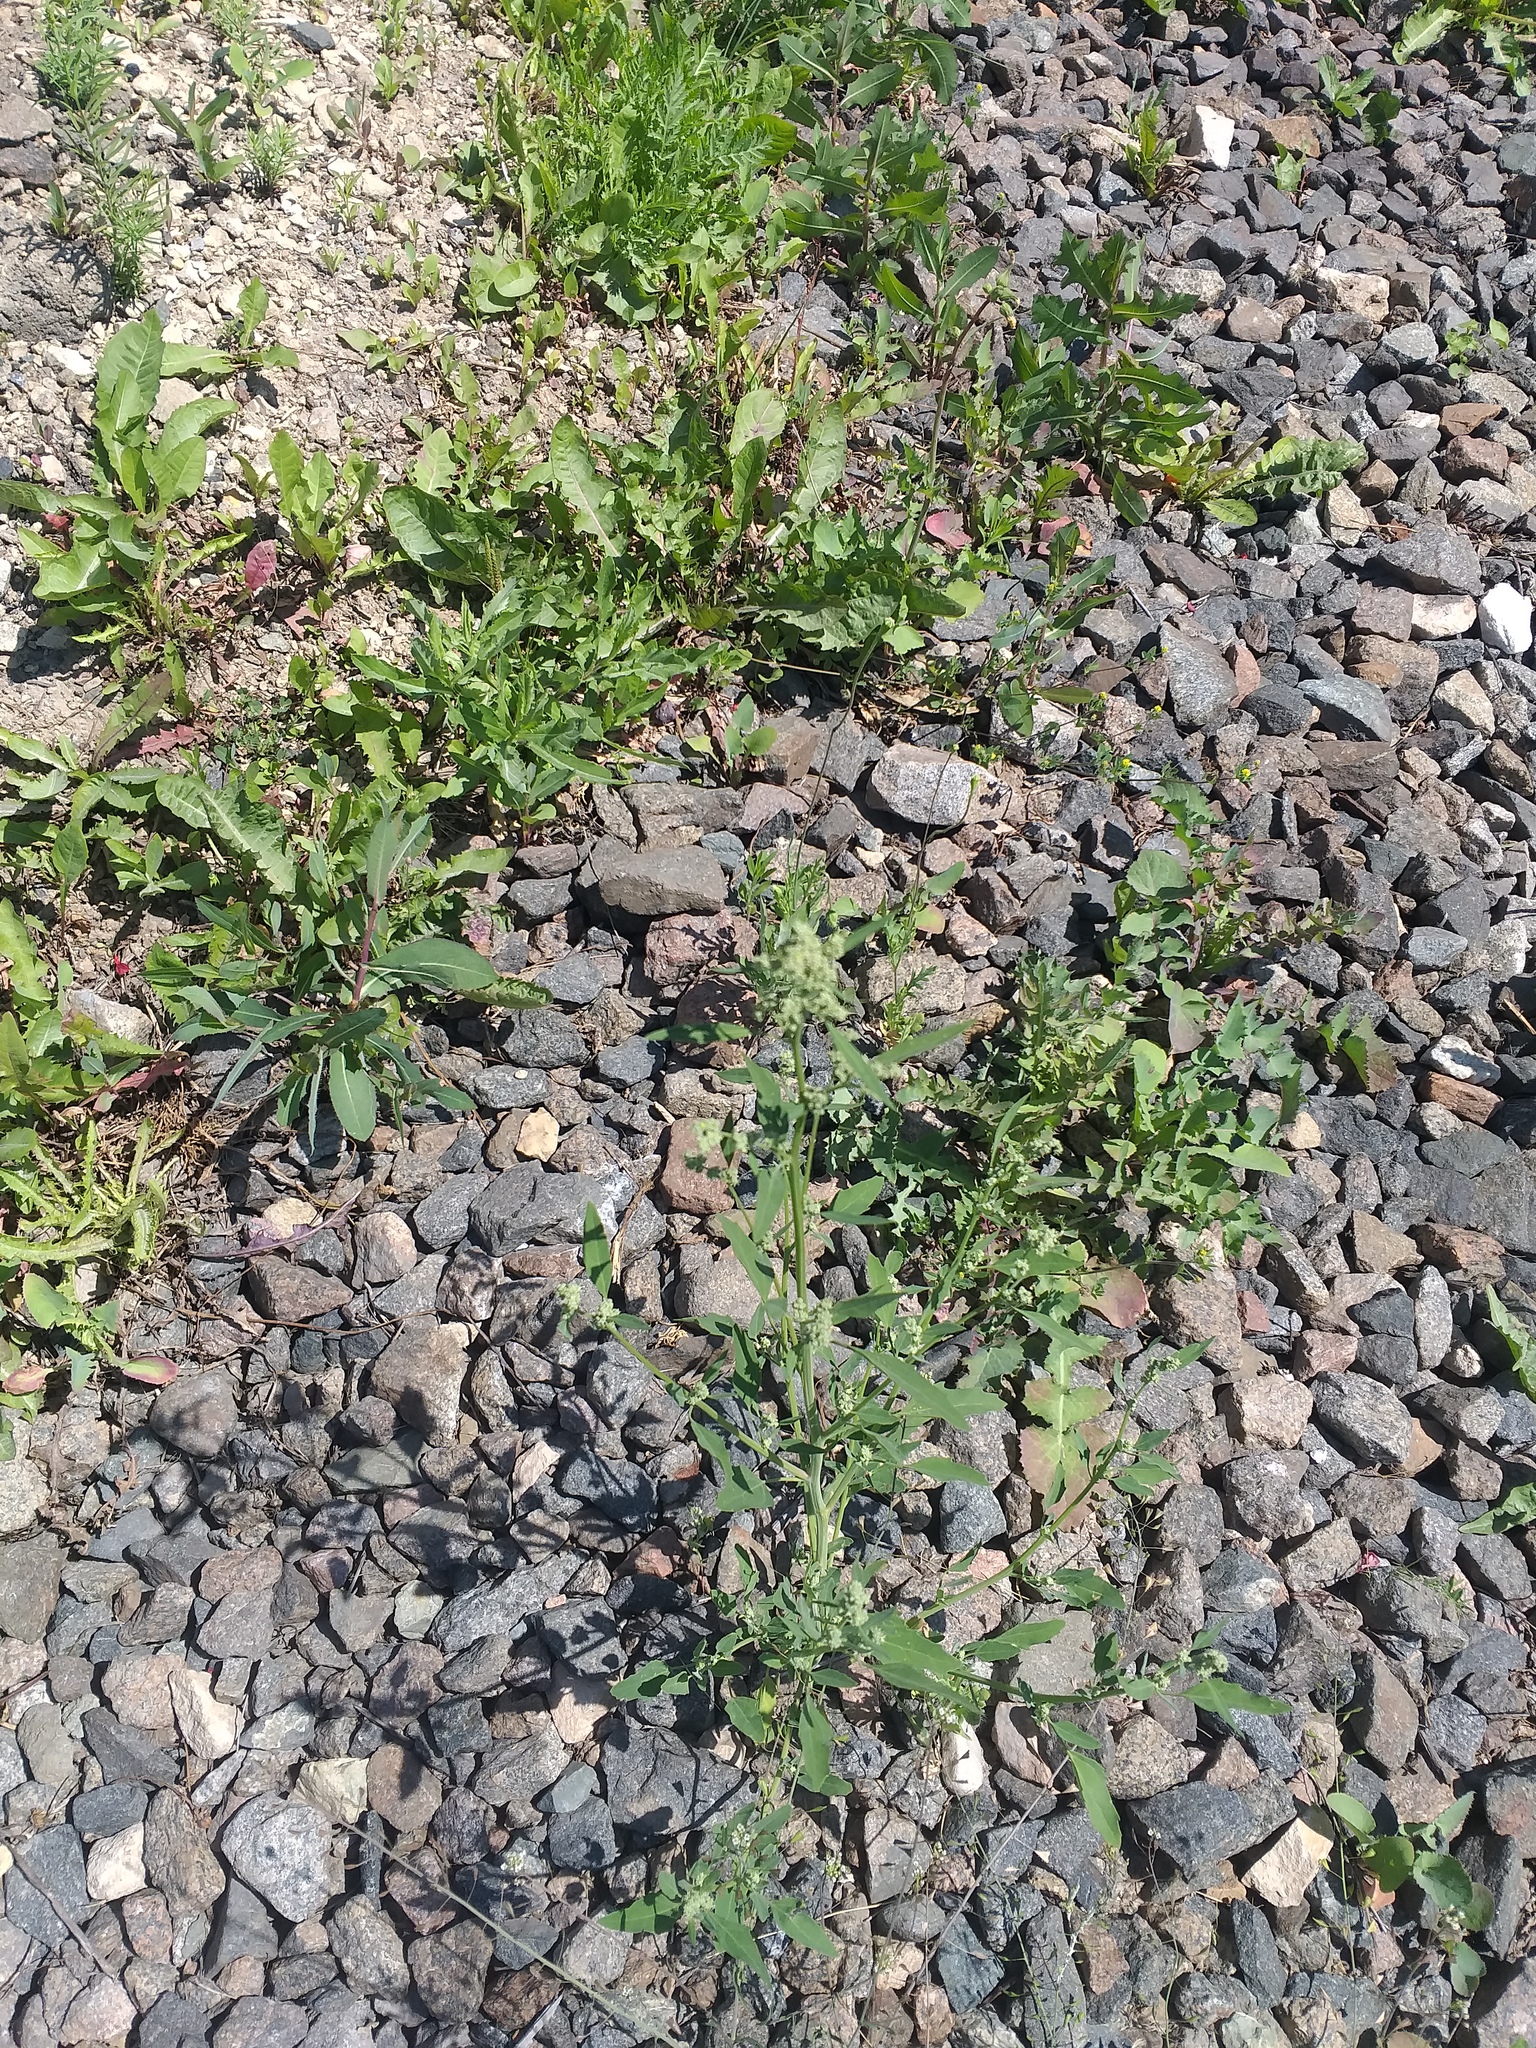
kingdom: Plantae
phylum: Tracheophyta
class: Magnoliopsida
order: Caryophyllales
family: Amaranthaceae
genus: Chenopodium
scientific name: Chenopodium album
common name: Fat-hen
